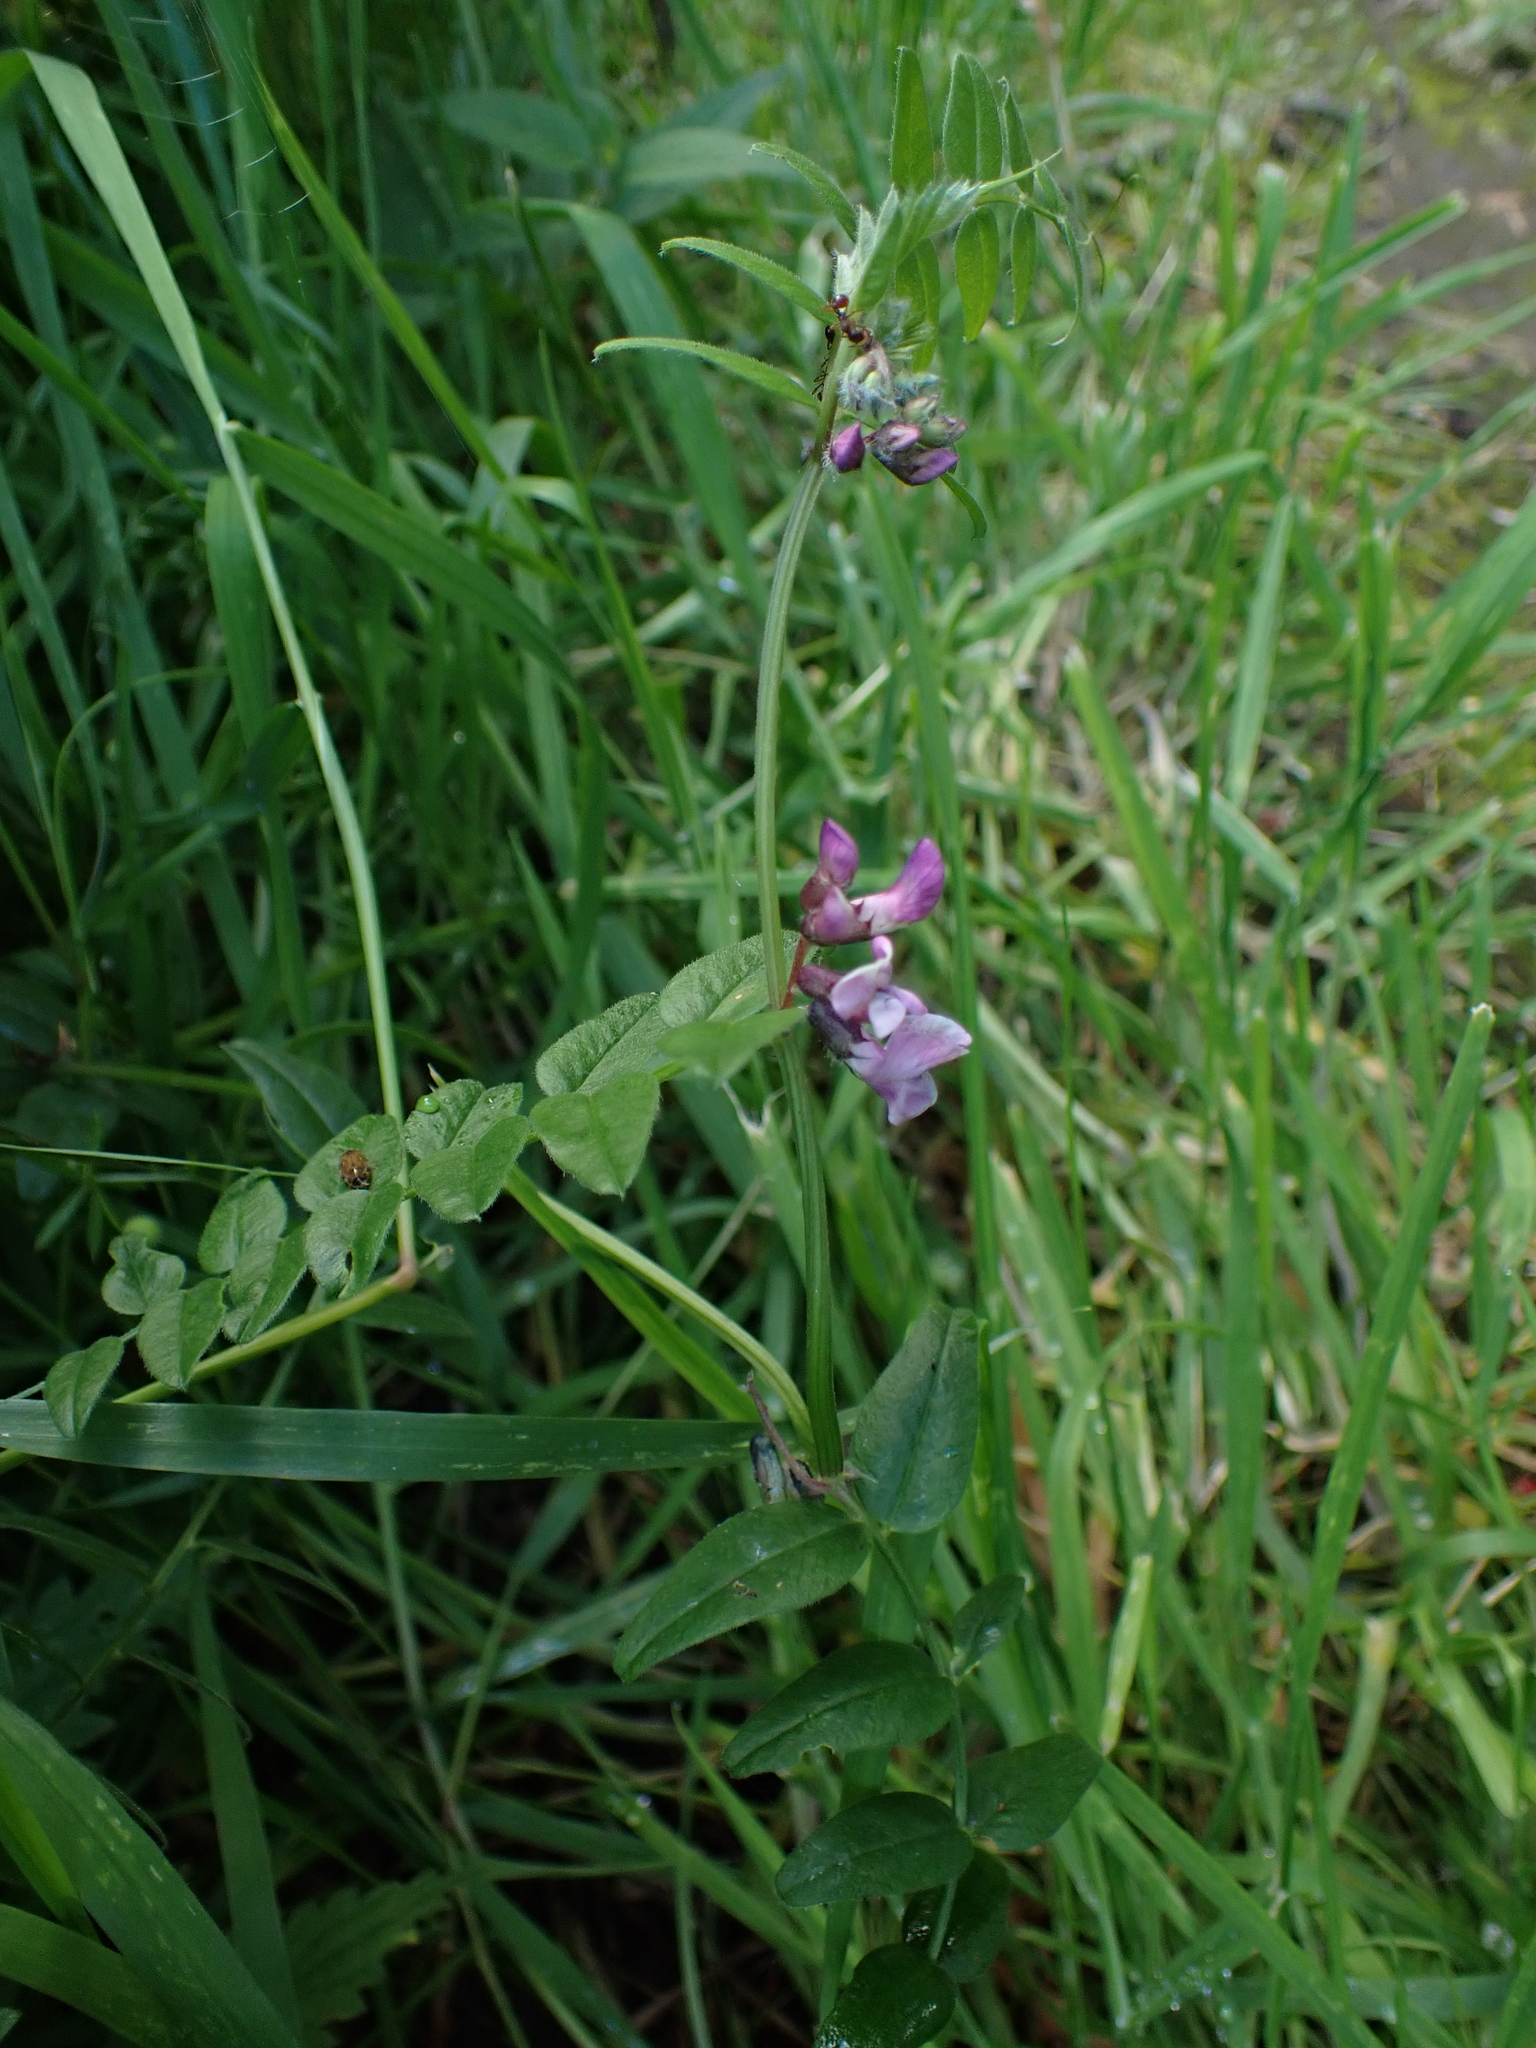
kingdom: Plantae
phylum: Tracheophyta
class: Magnoliopsida
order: Fabales
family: Fabaceae
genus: Vicia
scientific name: Vicia sepium
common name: Bush vetch
